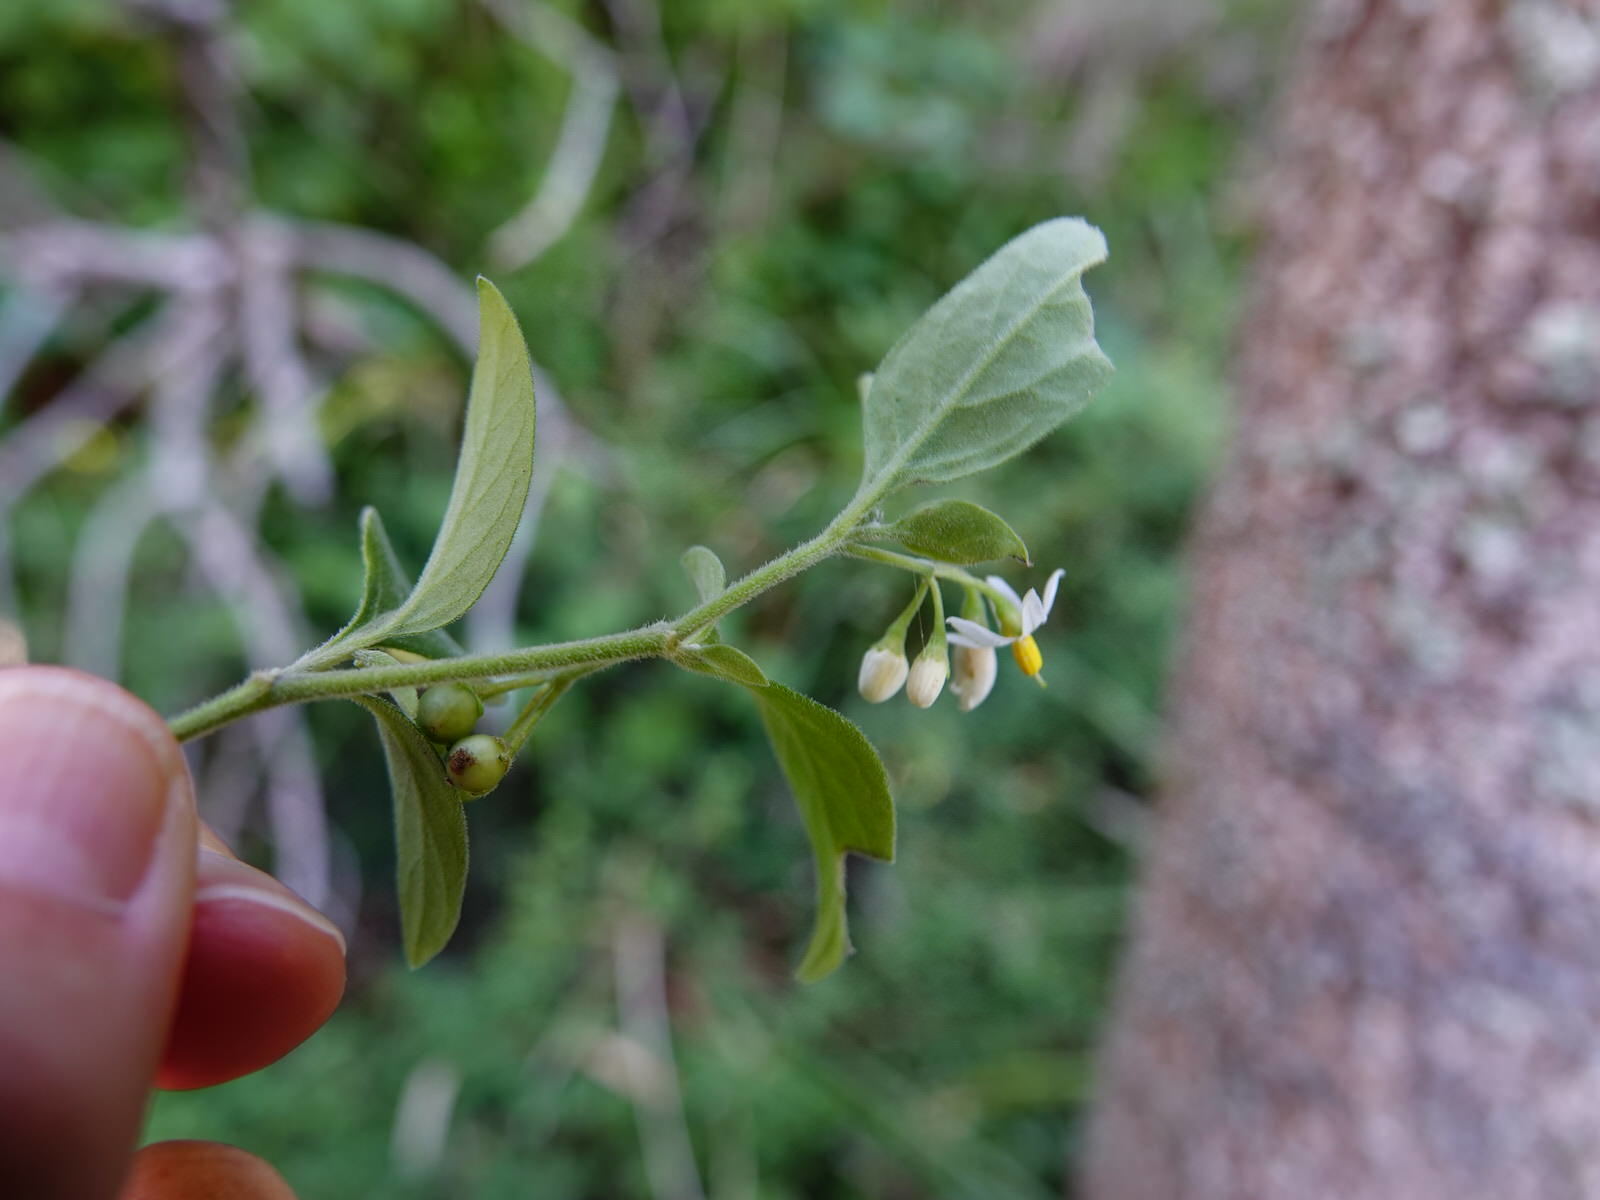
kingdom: Plantae
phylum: Tracheophyta
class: Magnoliopsida
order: Solanales
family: Solanaceae
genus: Solanum
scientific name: Solanum chenopodioides
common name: Tall nightshade
